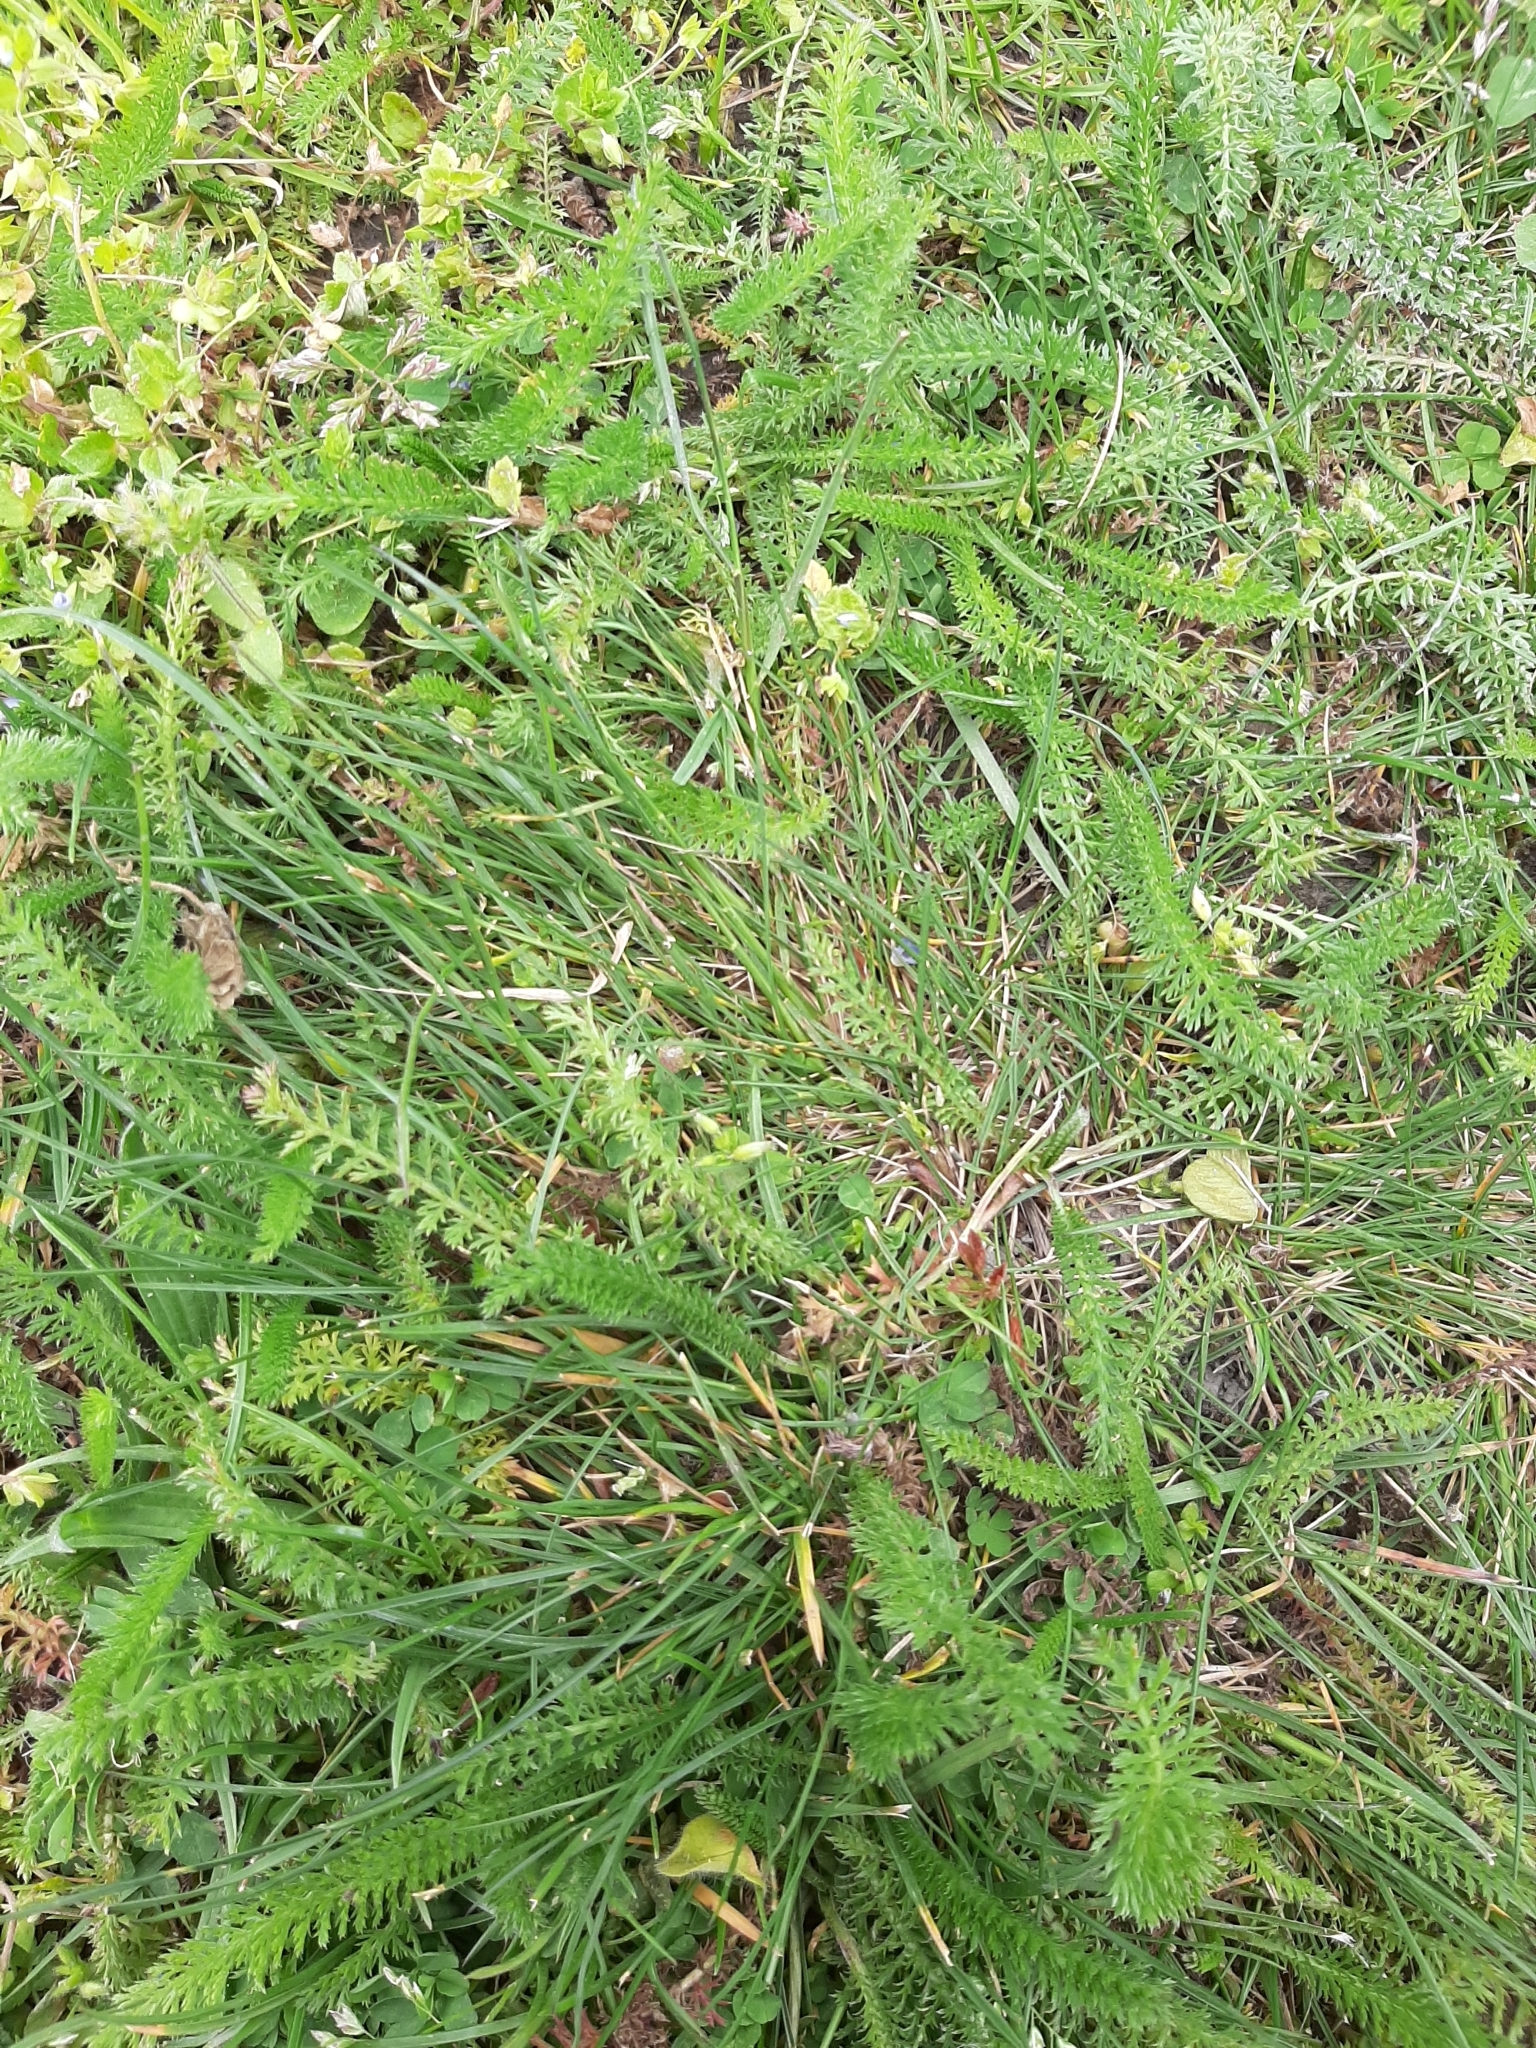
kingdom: Plantae
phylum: Tracheophyta
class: Magnoliopsida
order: Asterales
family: Asteraceae
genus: Achillea
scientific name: Achillea millefolium
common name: Yarrow
